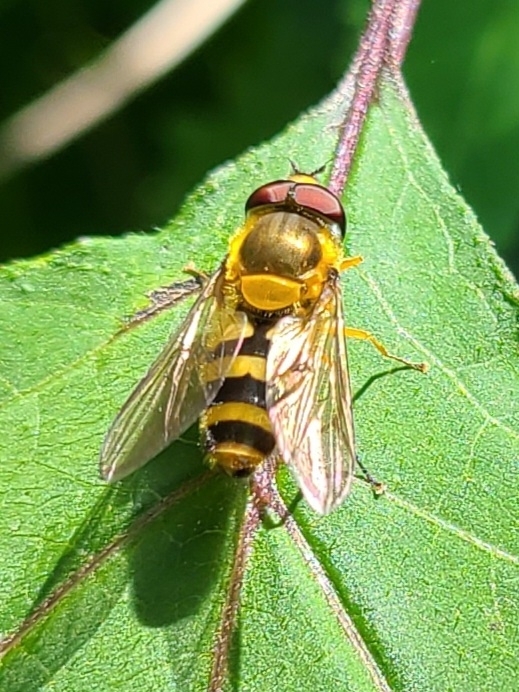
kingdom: Animalia
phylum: Arthropoda
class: Insecta
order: Diptera
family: Syrphidae
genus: Epistrophe
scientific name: Epistrophe grossulariae
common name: Black-horned smoothtail
